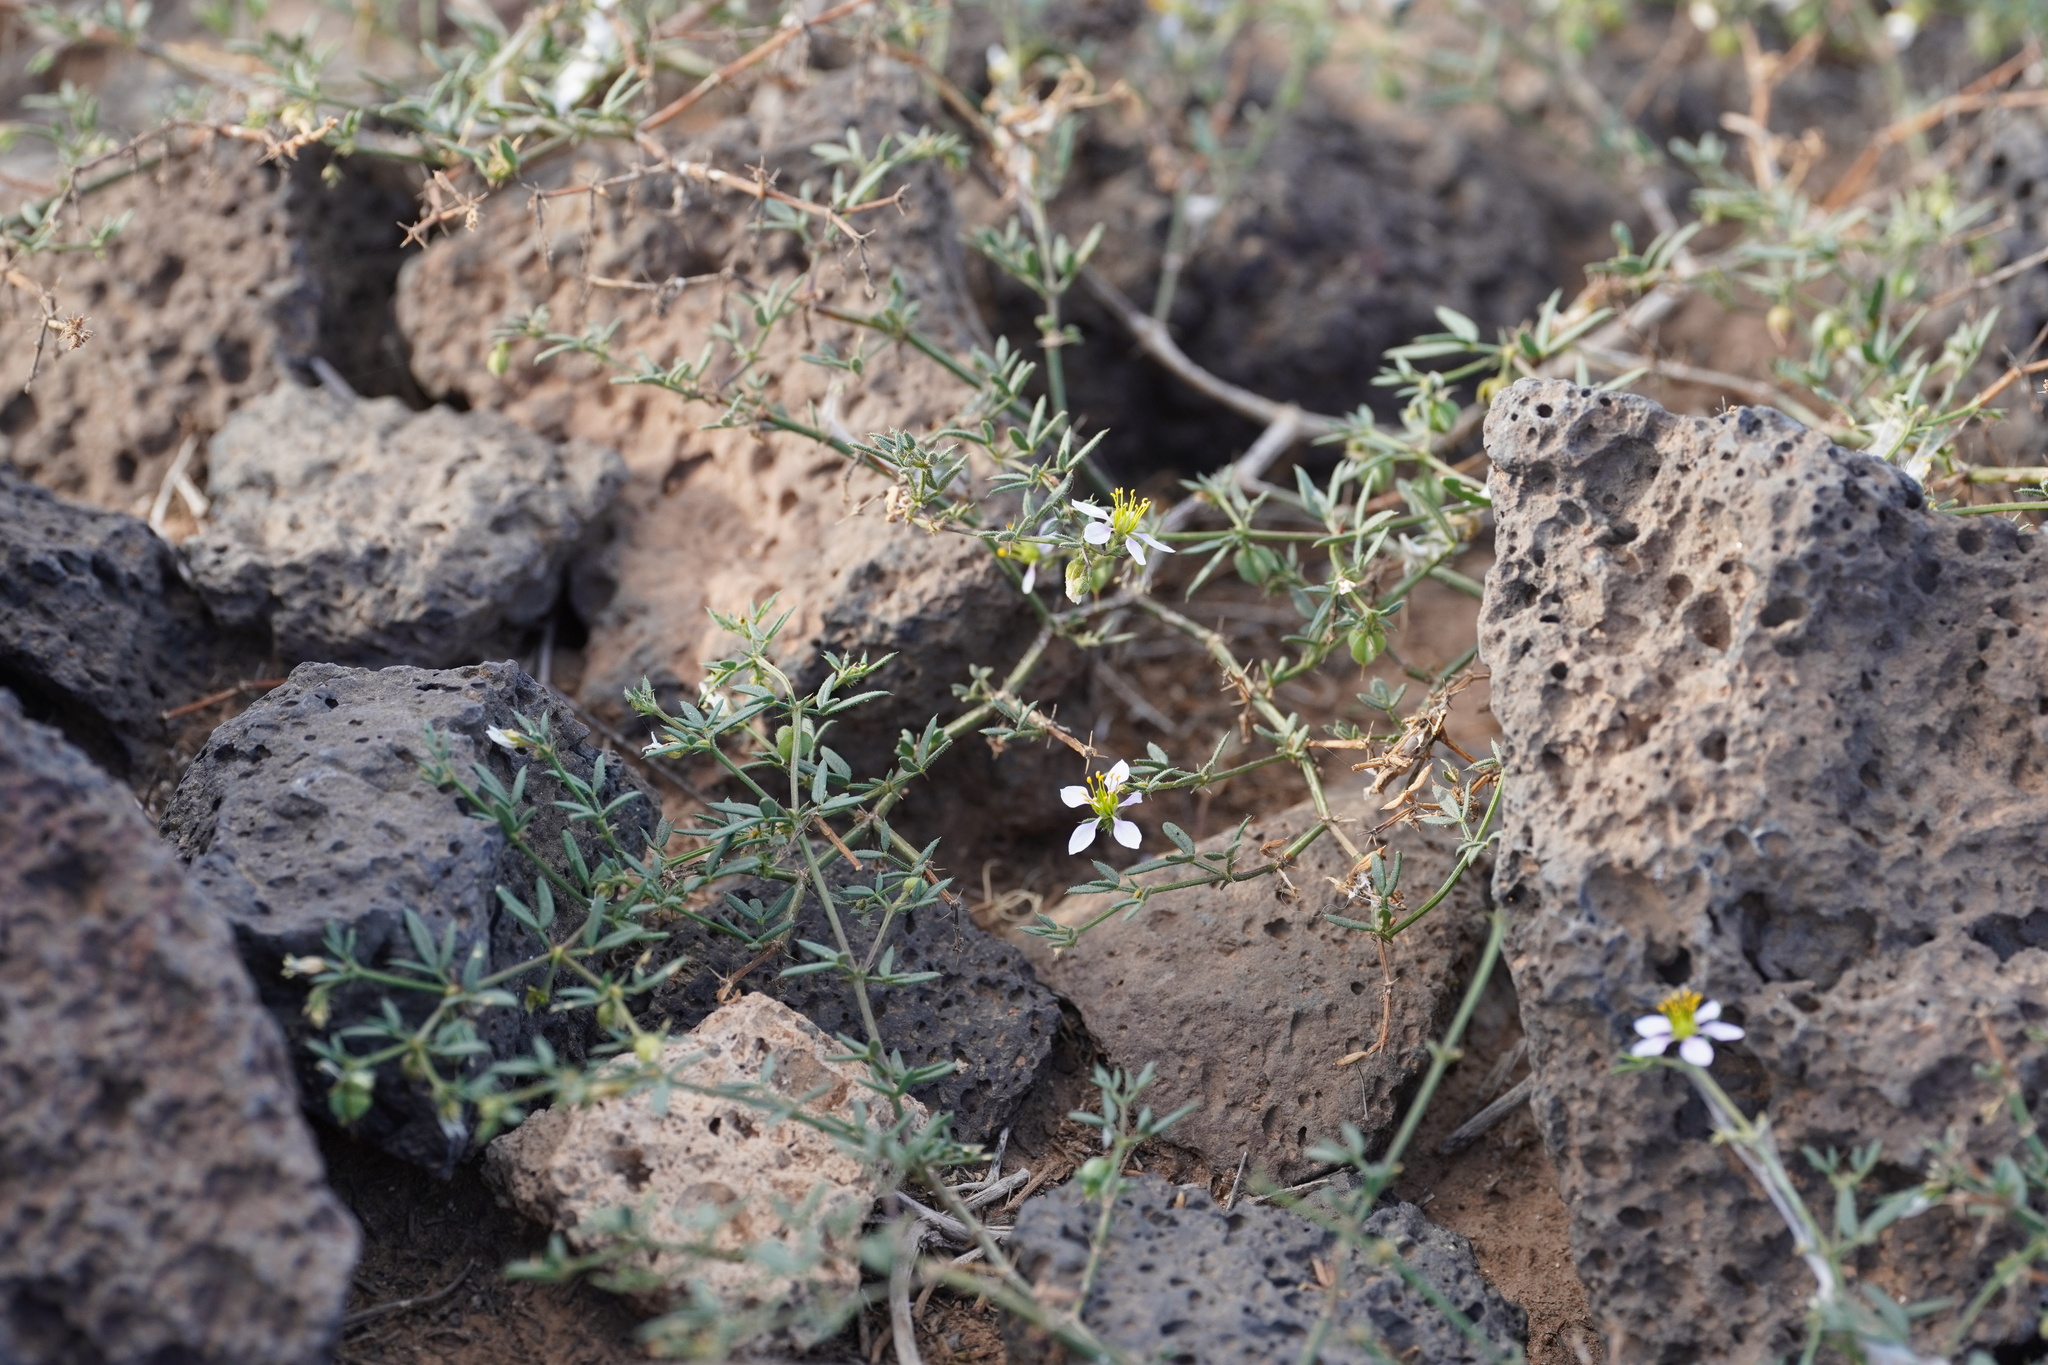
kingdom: Plantae
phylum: Tracheophyta
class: Magnoliopsida
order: Zygophyllales
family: Zygophyllaceae
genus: Fagonia
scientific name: Fagonia cretica
